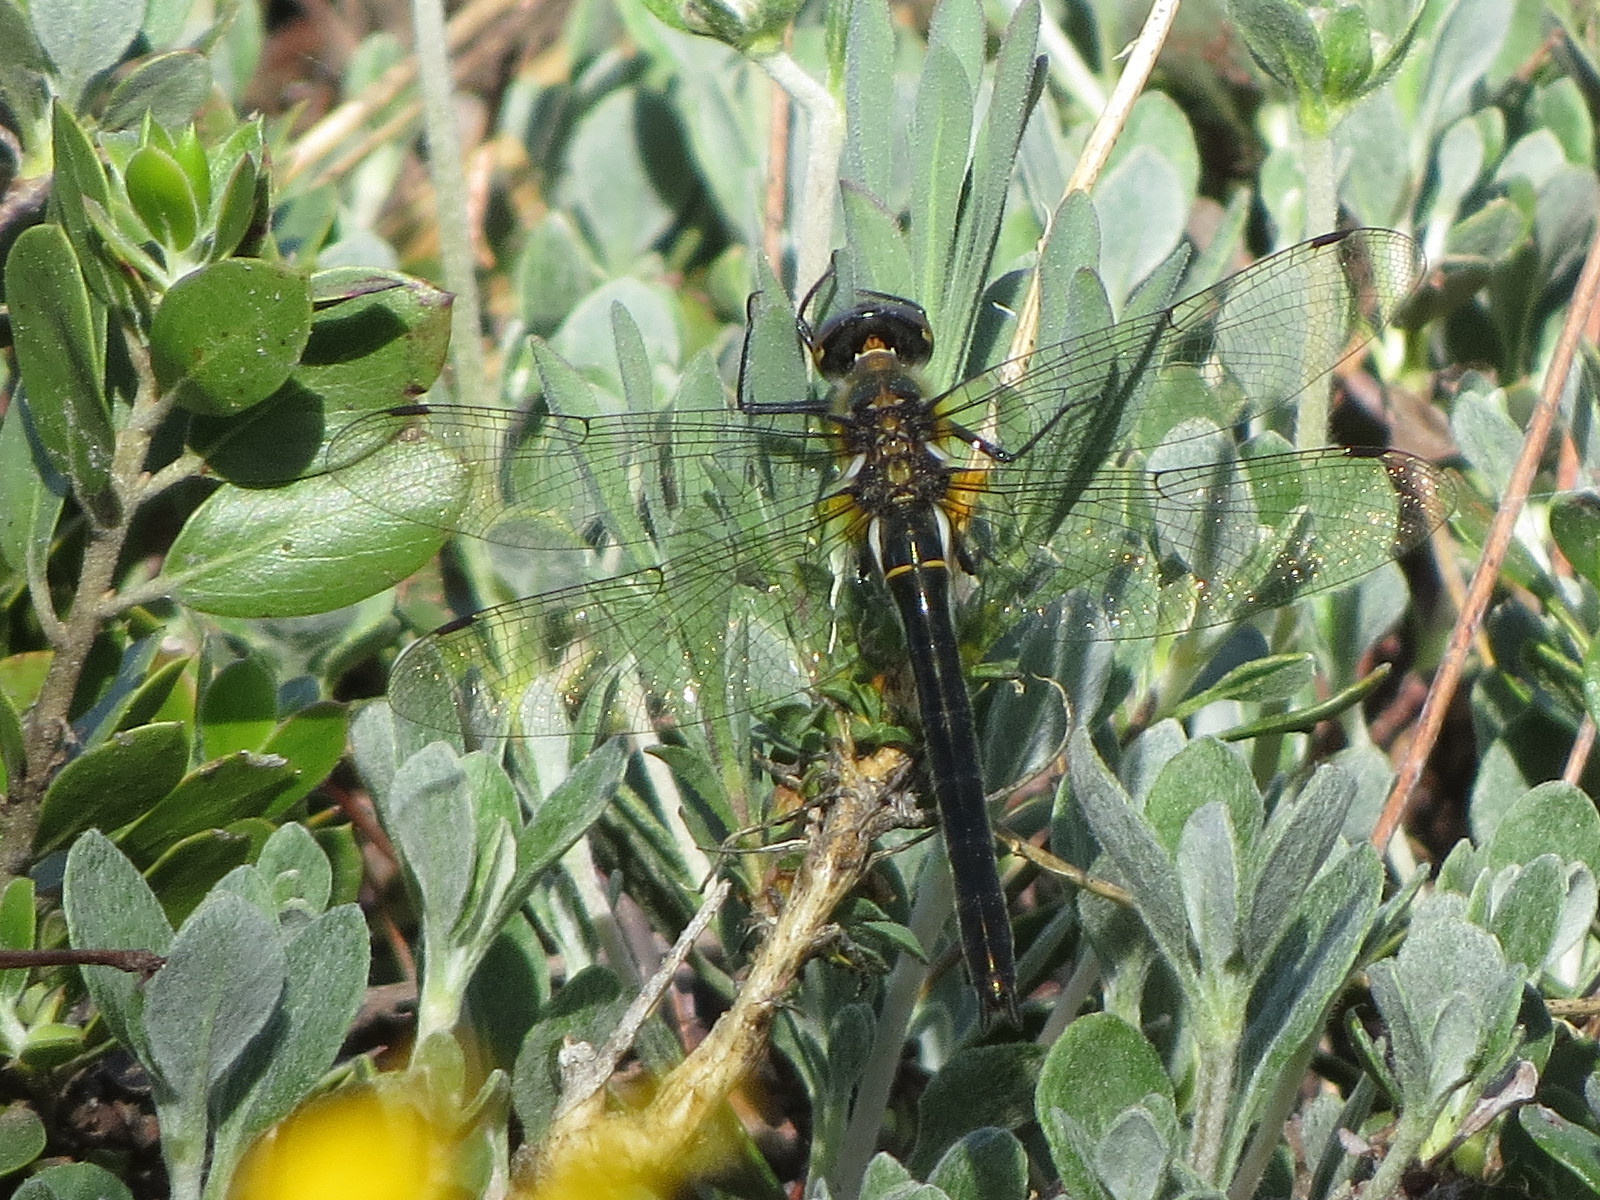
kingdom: Animalia
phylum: Arthropoda
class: Insecta
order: Odonata
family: Corduliidae
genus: Cordulia
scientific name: Cordulia shurtleffii
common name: American emerald
